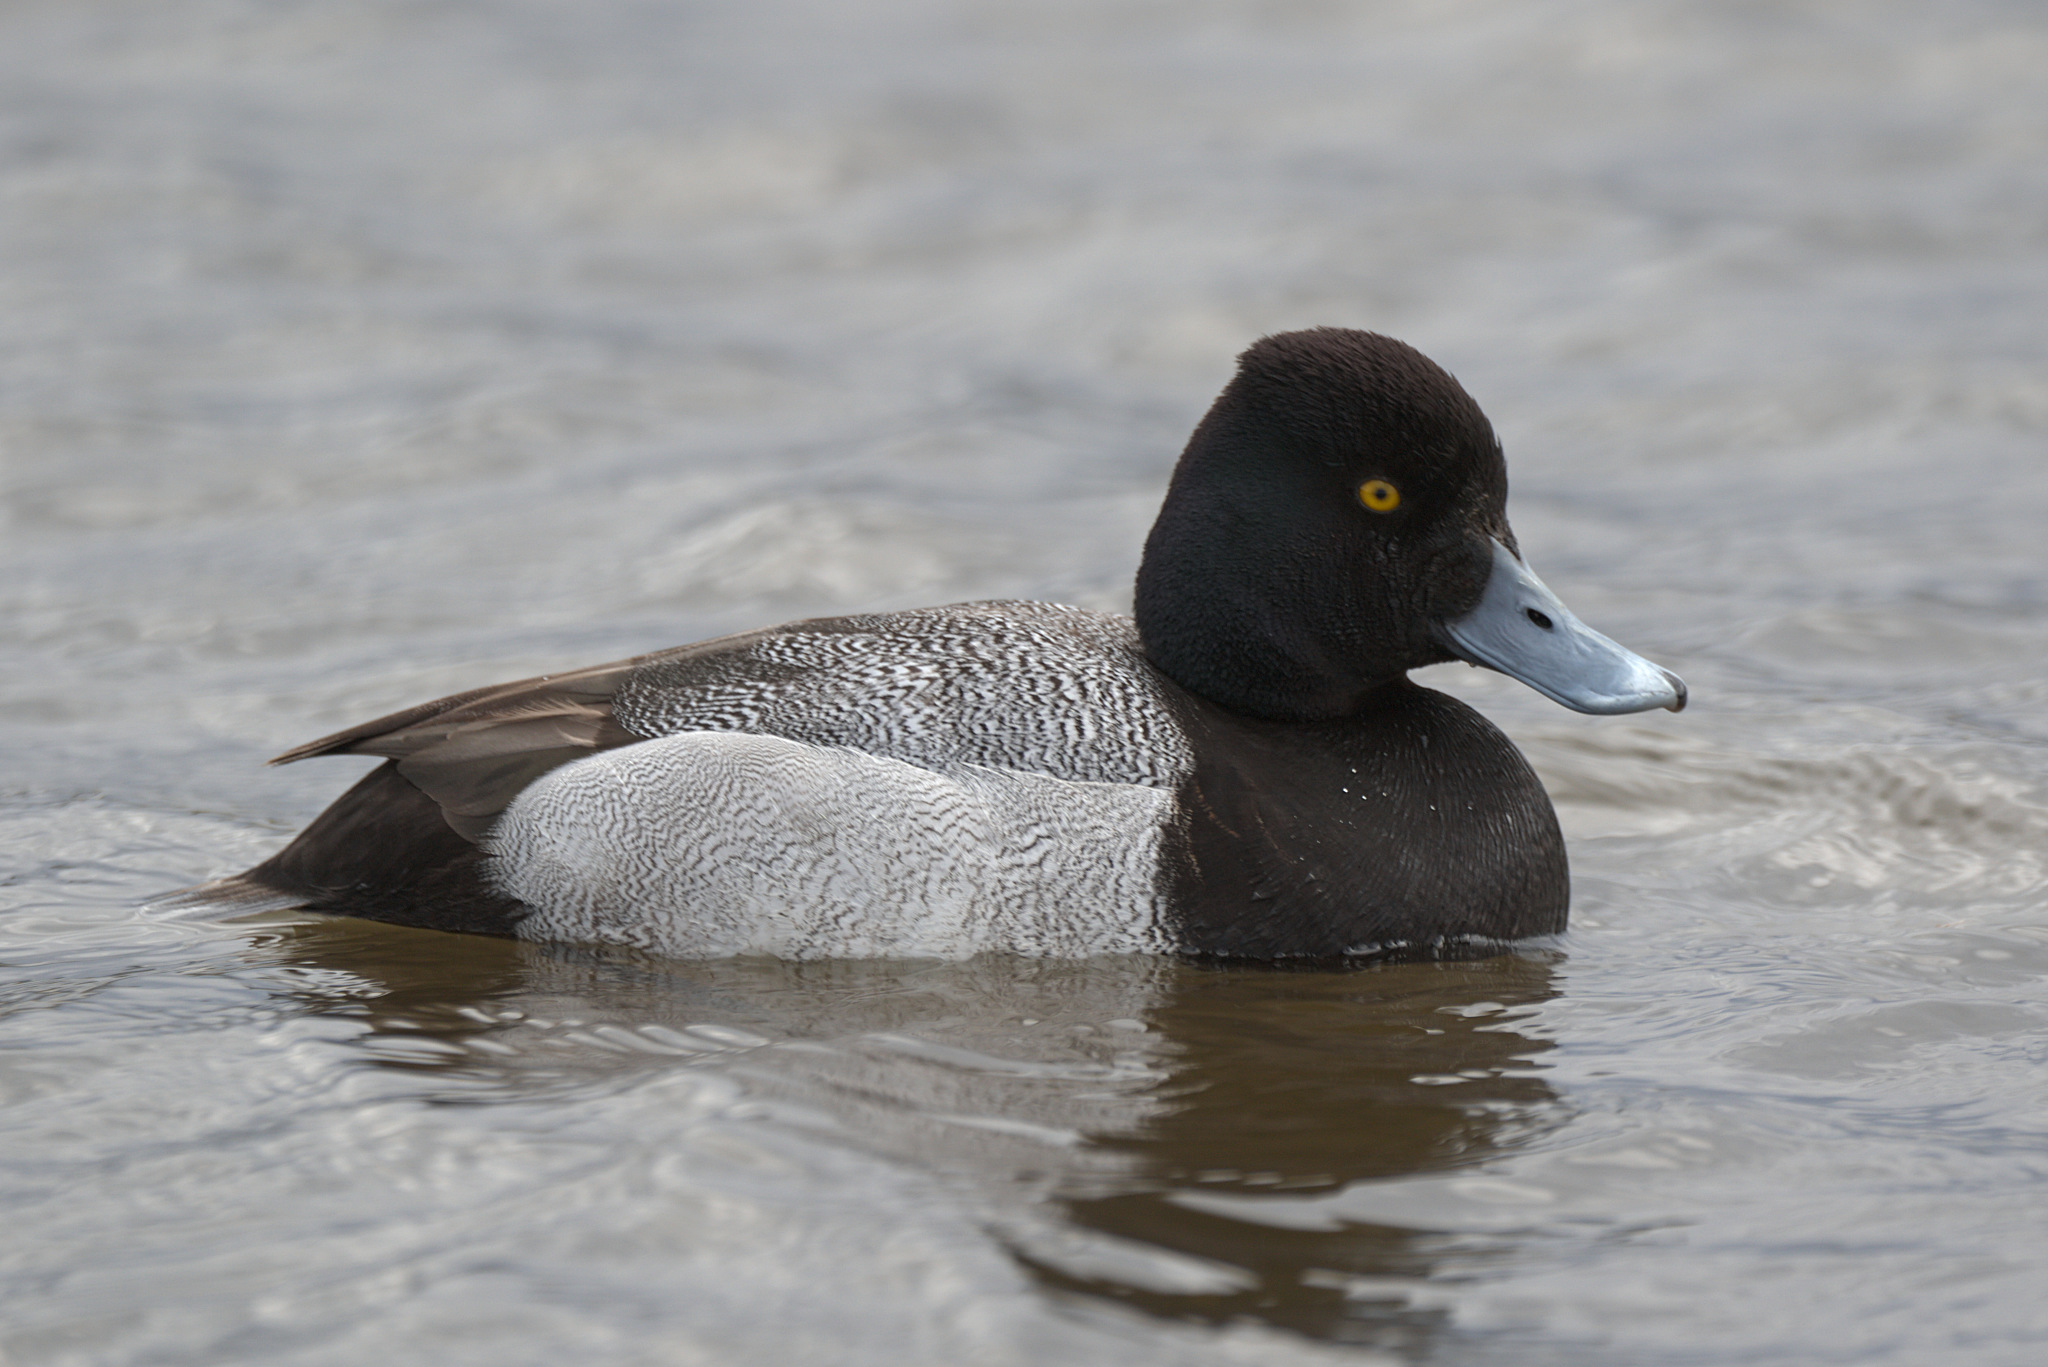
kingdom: Animalia
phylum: Chordata
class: Aves
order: Anseriformes
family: Anatidae
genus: Aythya
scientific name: Aythya affinis
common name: Lesser scaup
